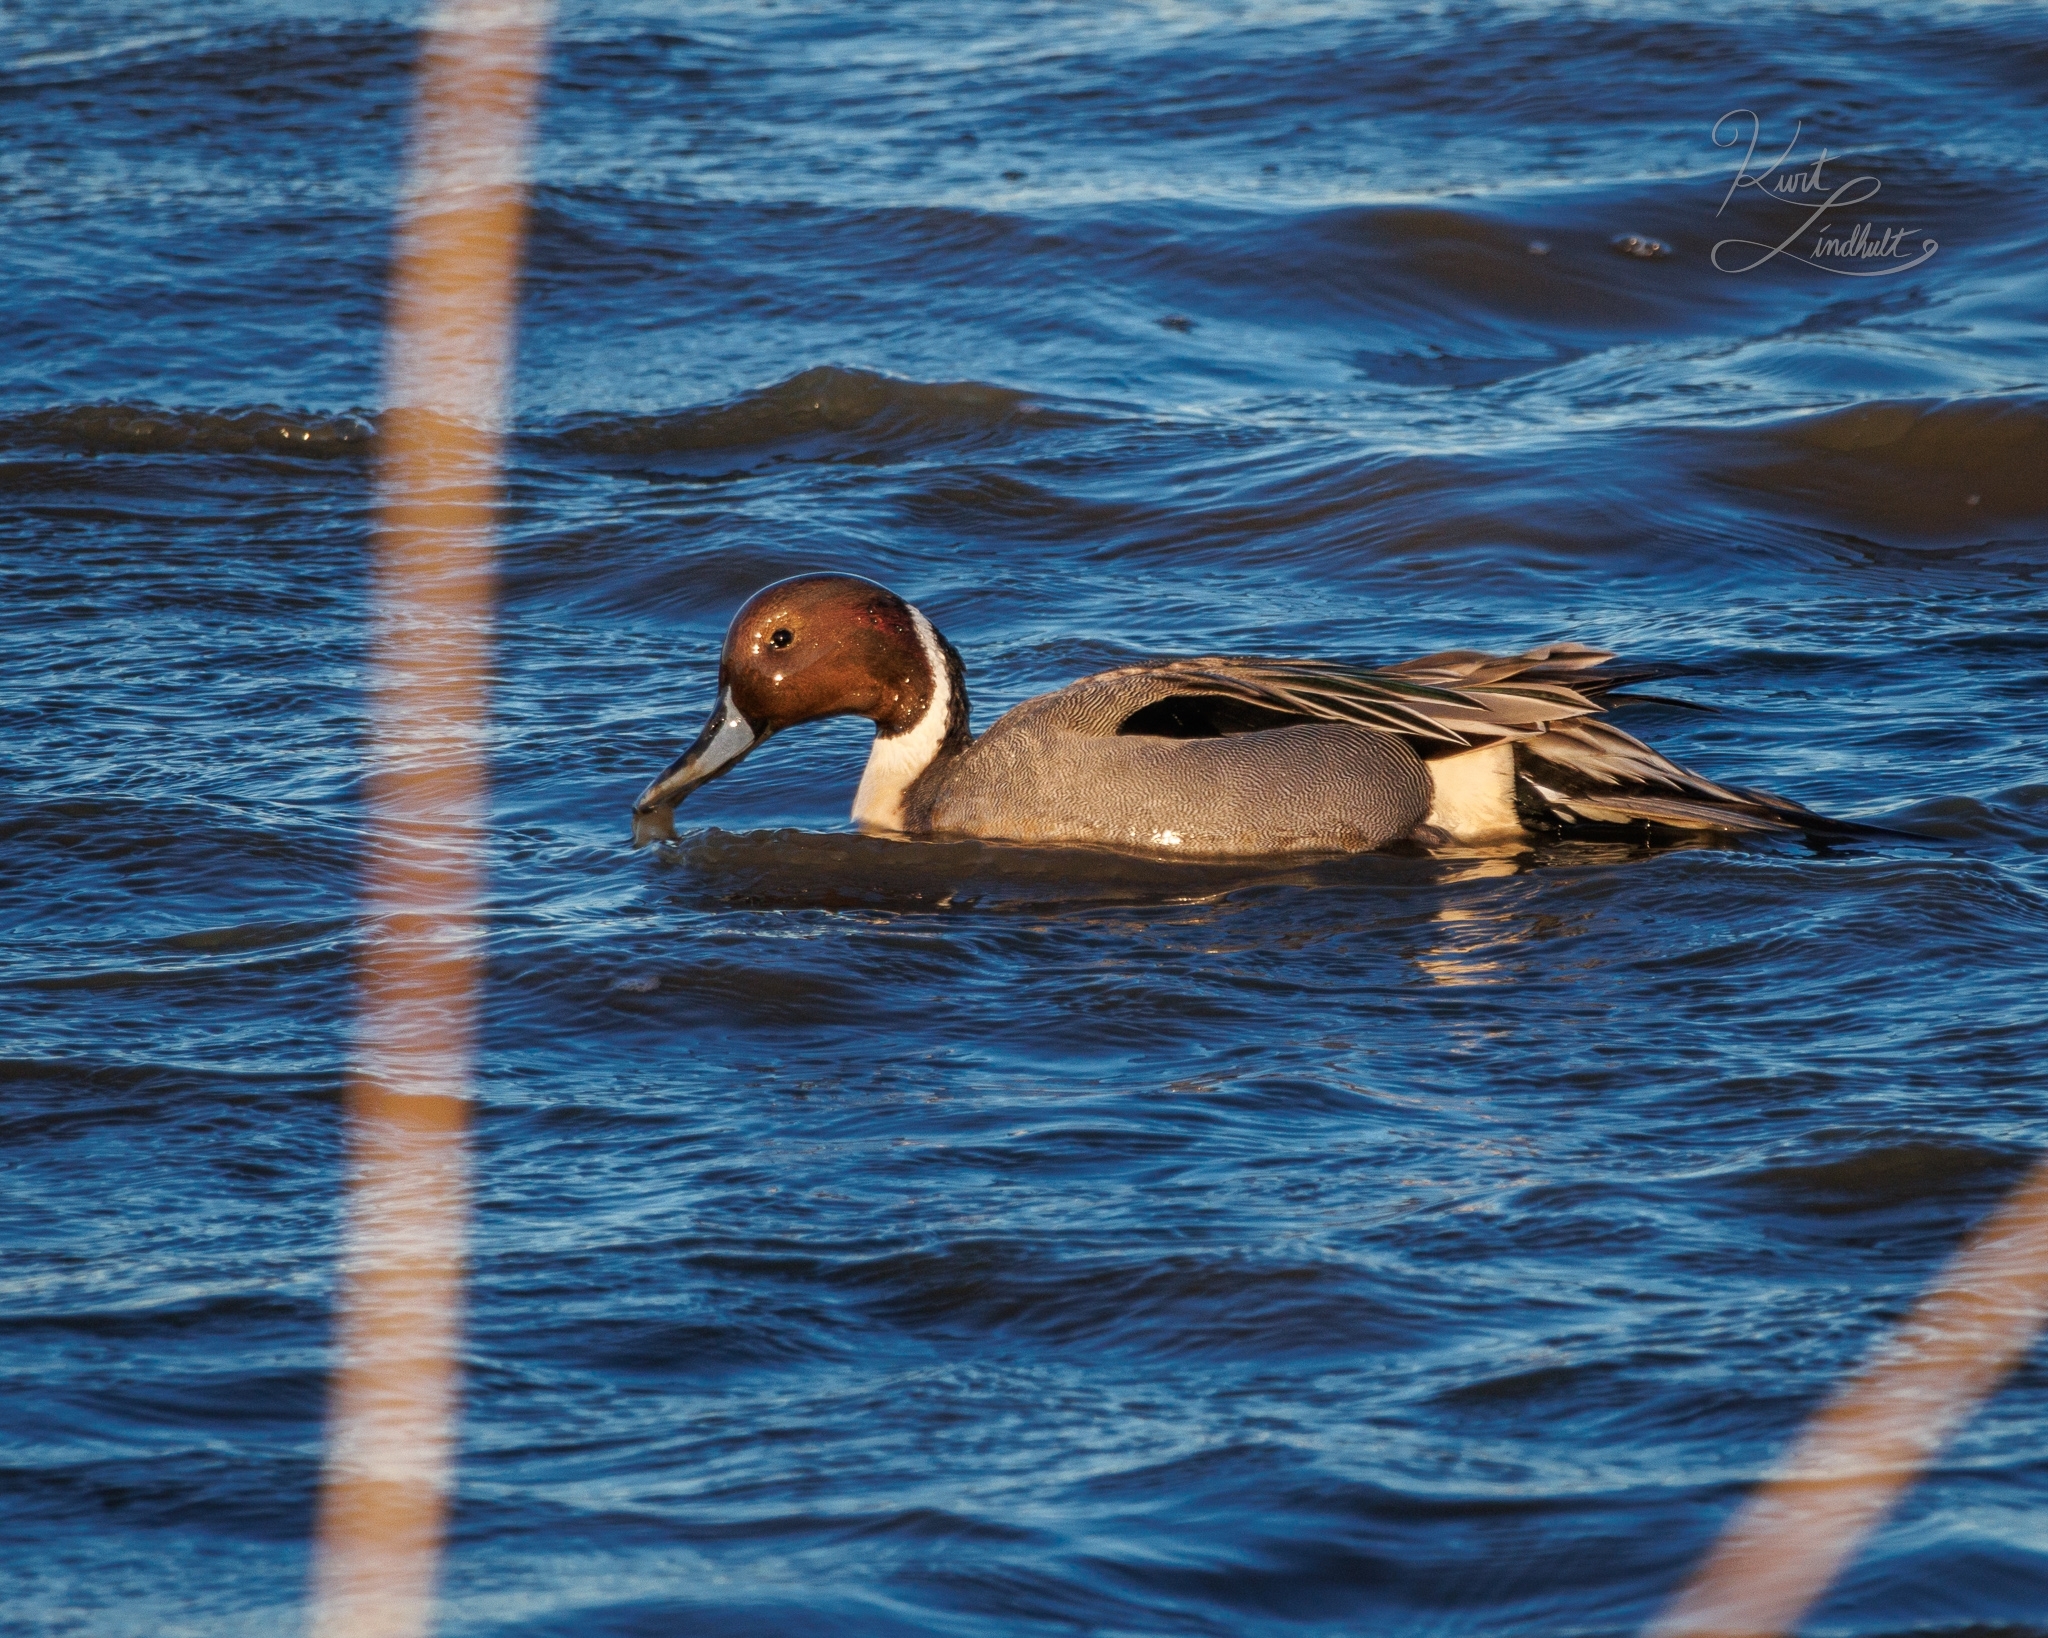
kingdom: Animalia
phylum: Chordata
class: Aves
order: Anseriformes
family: Anatidae
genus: Anas
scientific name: Anas acuta
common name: Northern pintail
